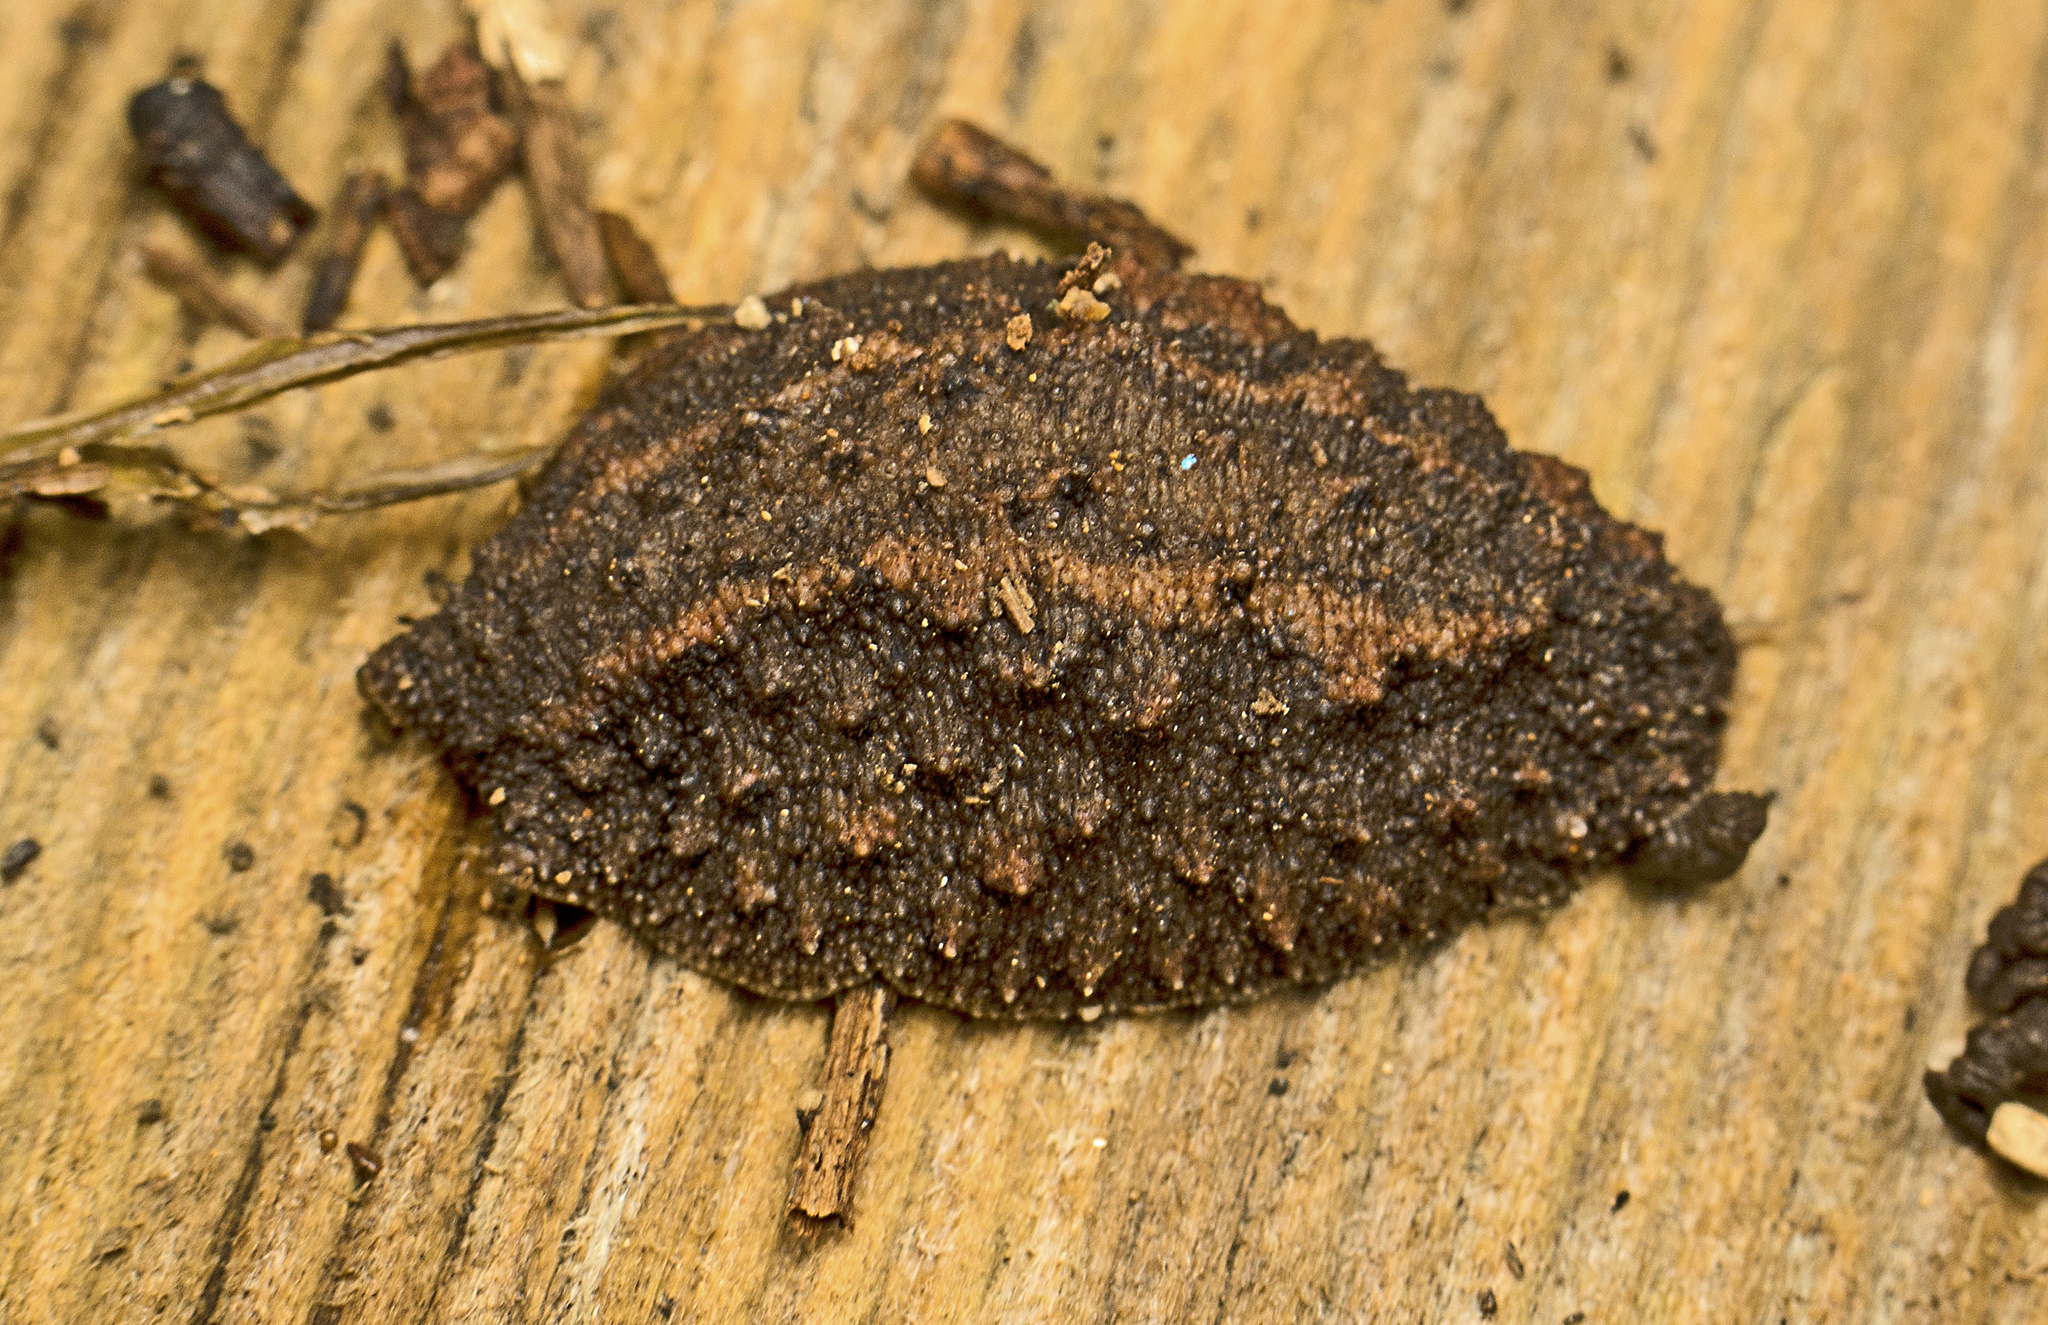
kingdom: Animalia
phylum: Mollusca
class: Gastropoda
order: Systellommatophora
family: Onchidiidae
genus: Onchidina
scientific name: Onchidina australis
